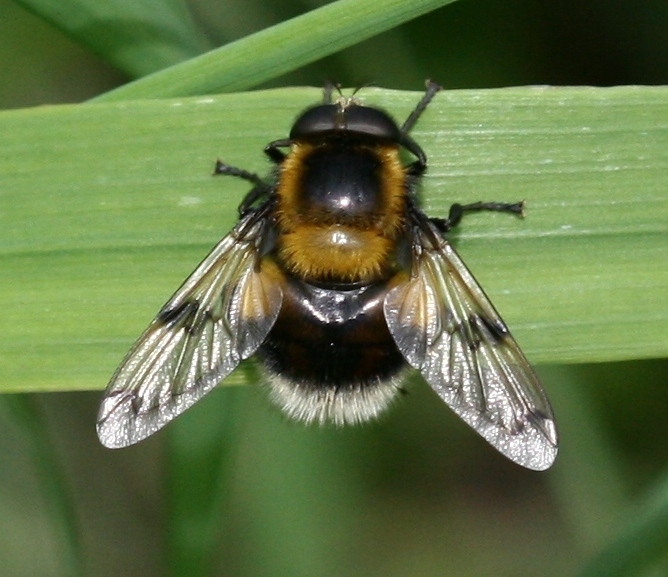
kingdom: Animalia
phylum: Arthropoda
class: Insecta
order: Diptera
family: Syrphidae
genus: Volucella
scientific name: Volucella bombylans
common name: Bumble bee hover fly
